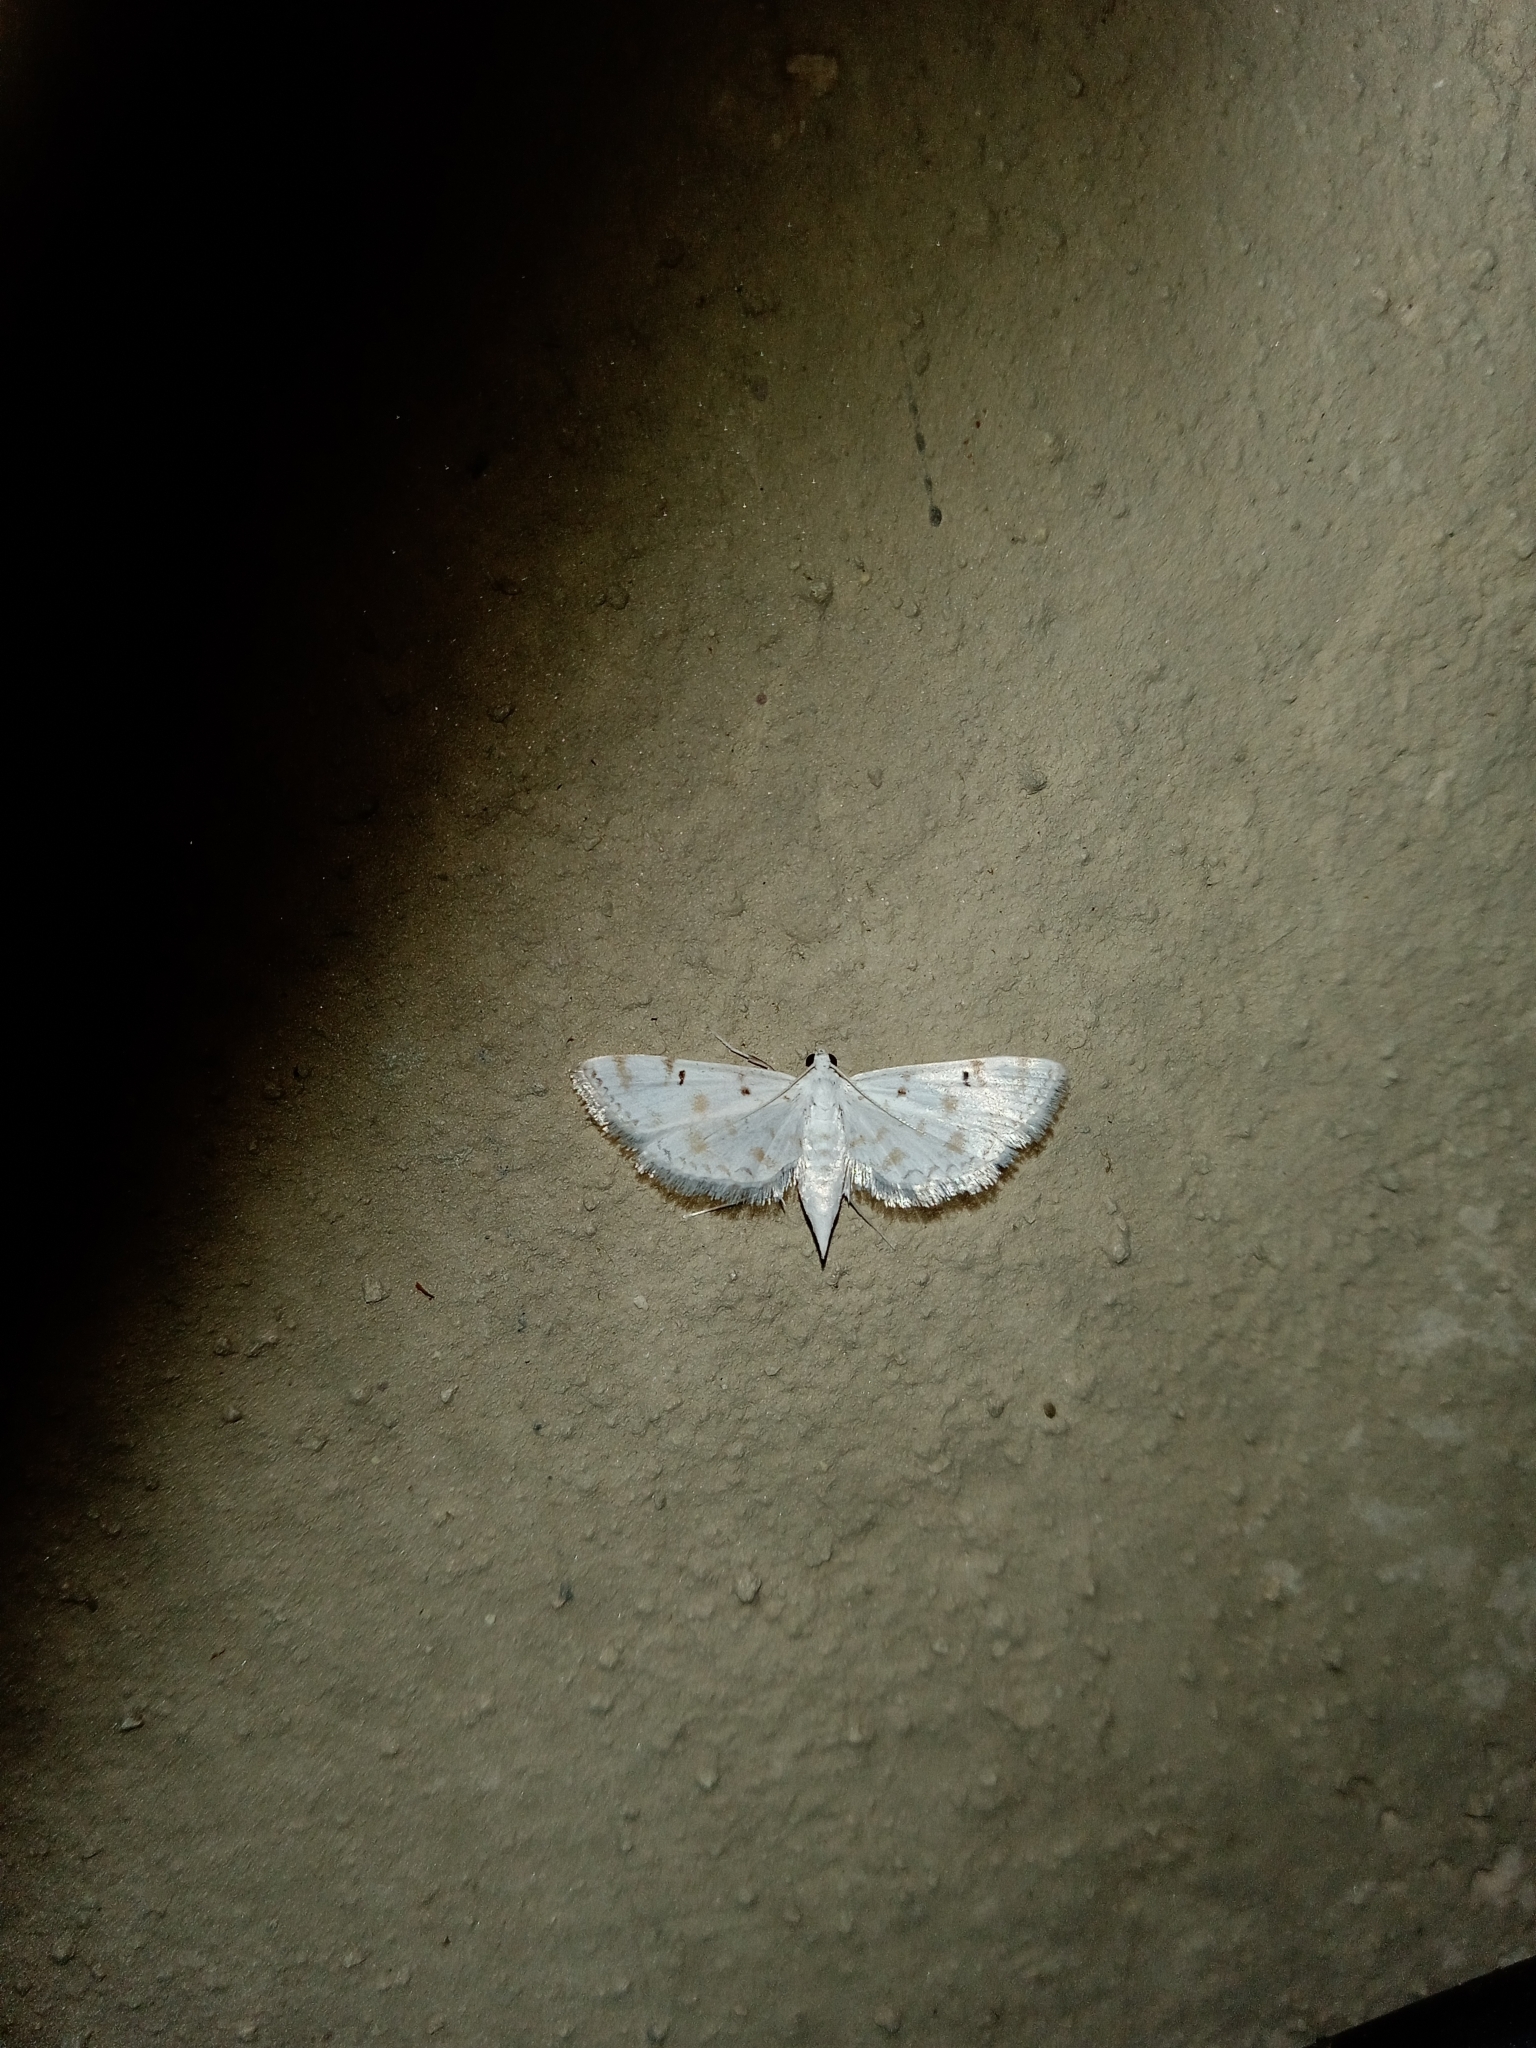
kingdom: Animalia
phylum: Arthropoda
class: Insecta
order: Lepidoptera
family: Crambidae
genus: Parapoynx
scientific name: Parapoynx stagnalis
